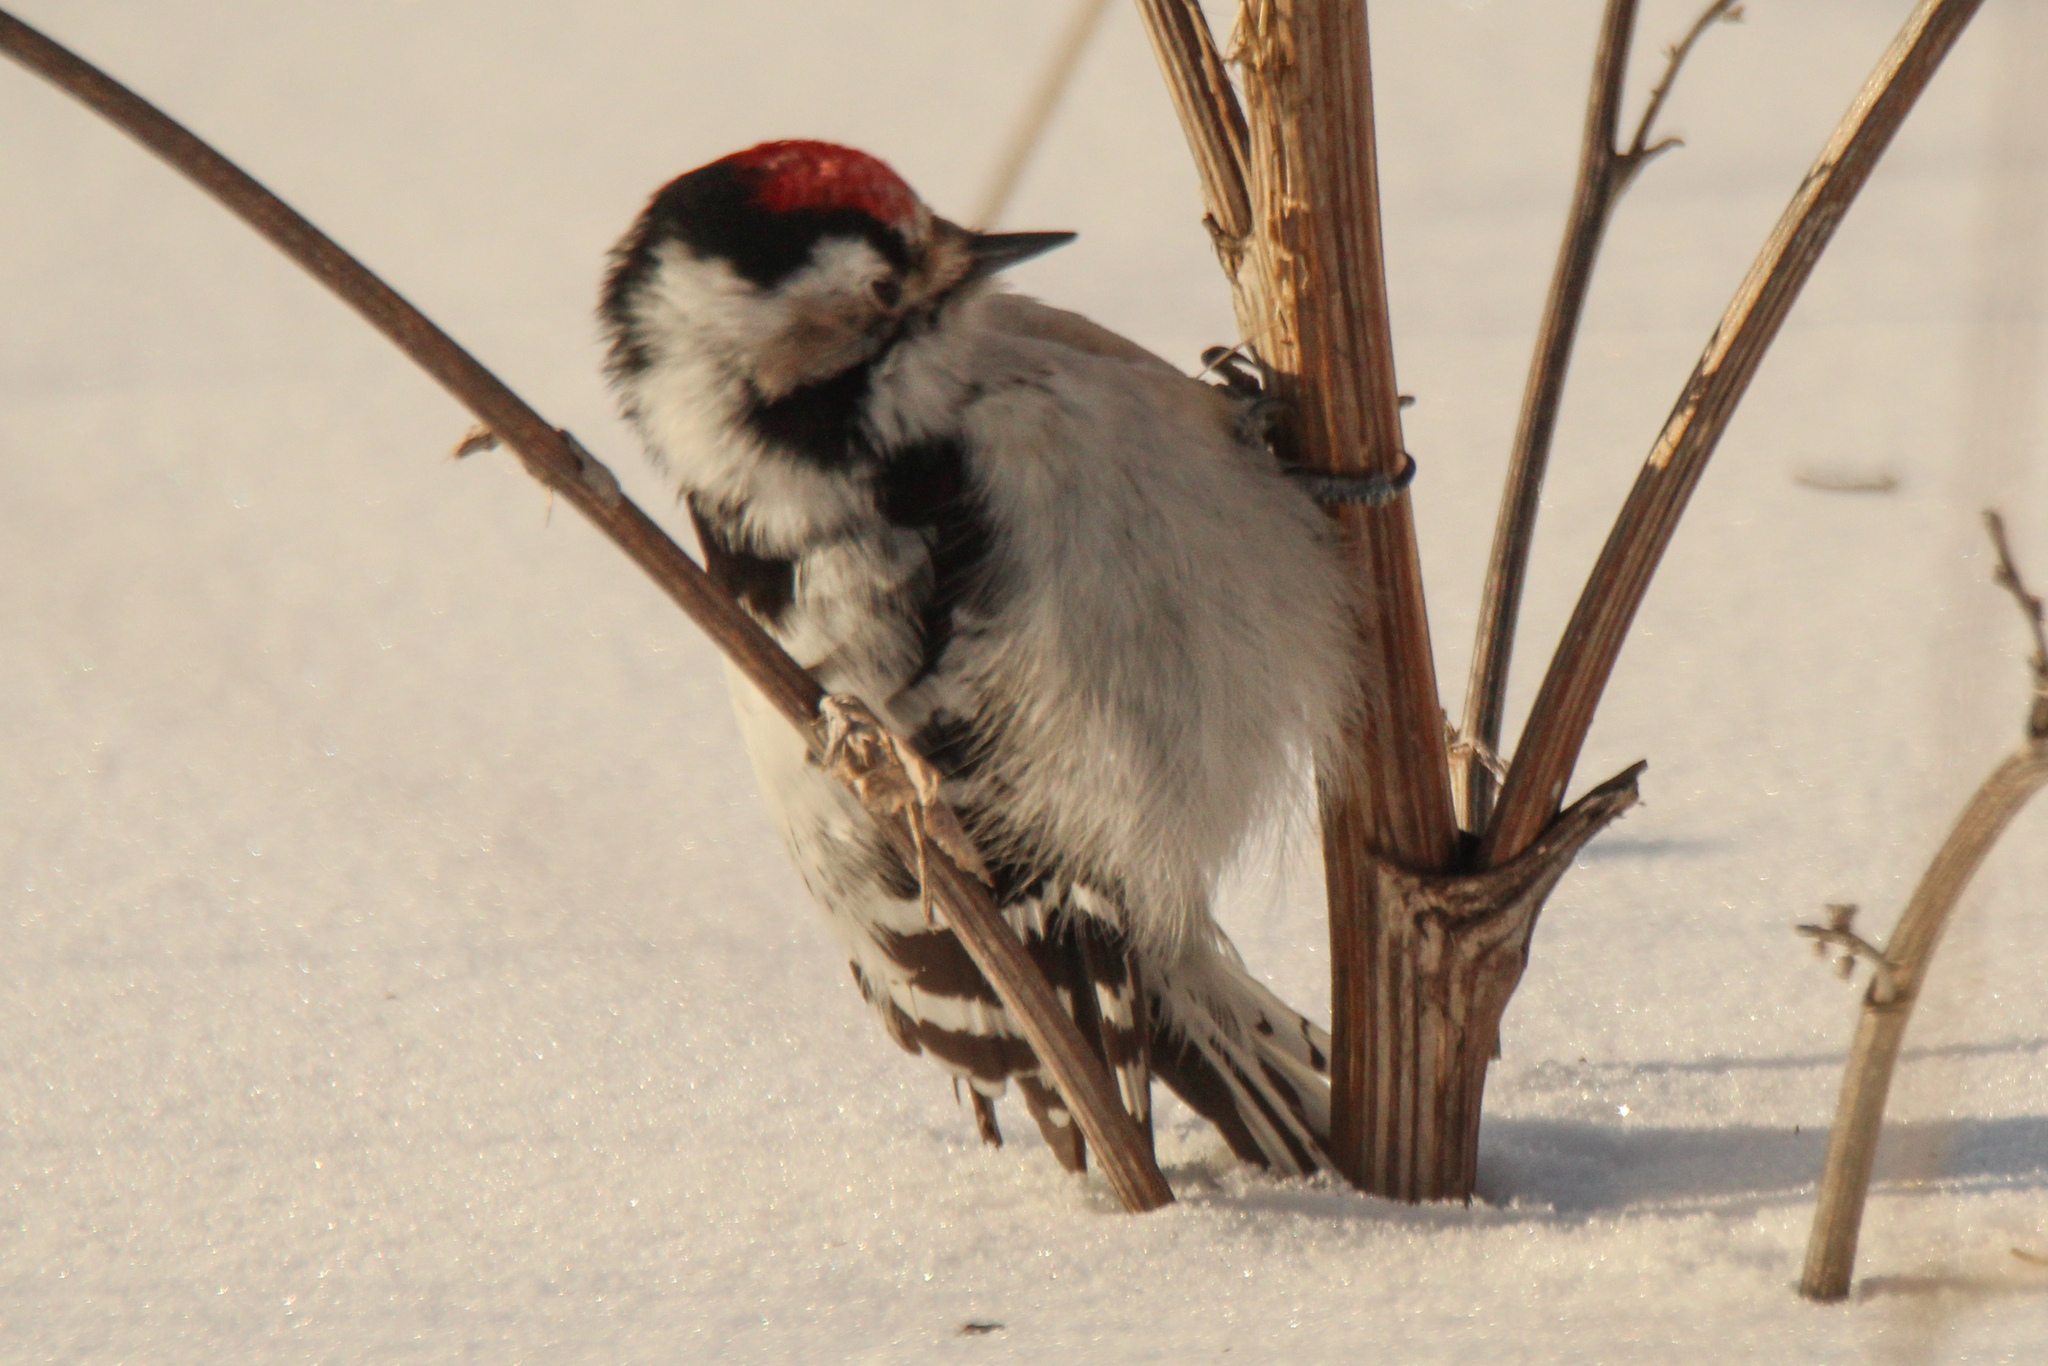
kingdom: Animalia
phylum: Chordata
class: Aves
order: Piciformes
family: Picidae
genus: Dryobates
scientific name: Dryobates minor
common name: Lesser spotted woodpecker
